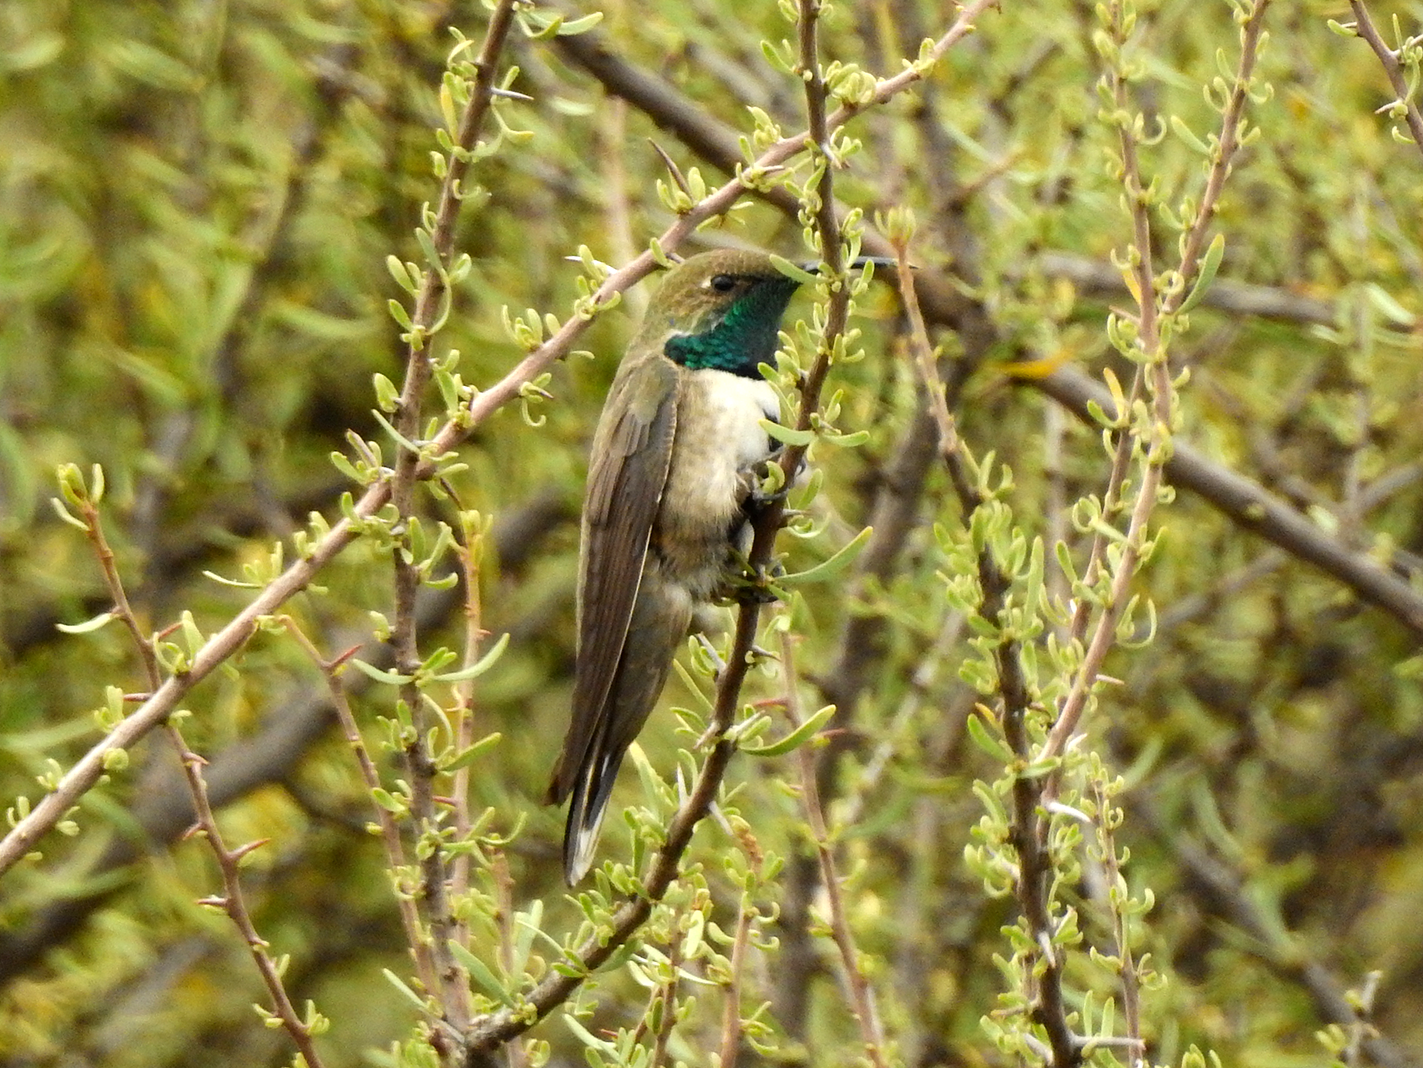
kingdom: Animalia
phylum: Chordata
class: Aves
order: Apodiformes
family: Trochilidae
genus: Oreotrochilus
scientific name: Oreotrochilus leucopleurus
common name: White-sided hillstar
